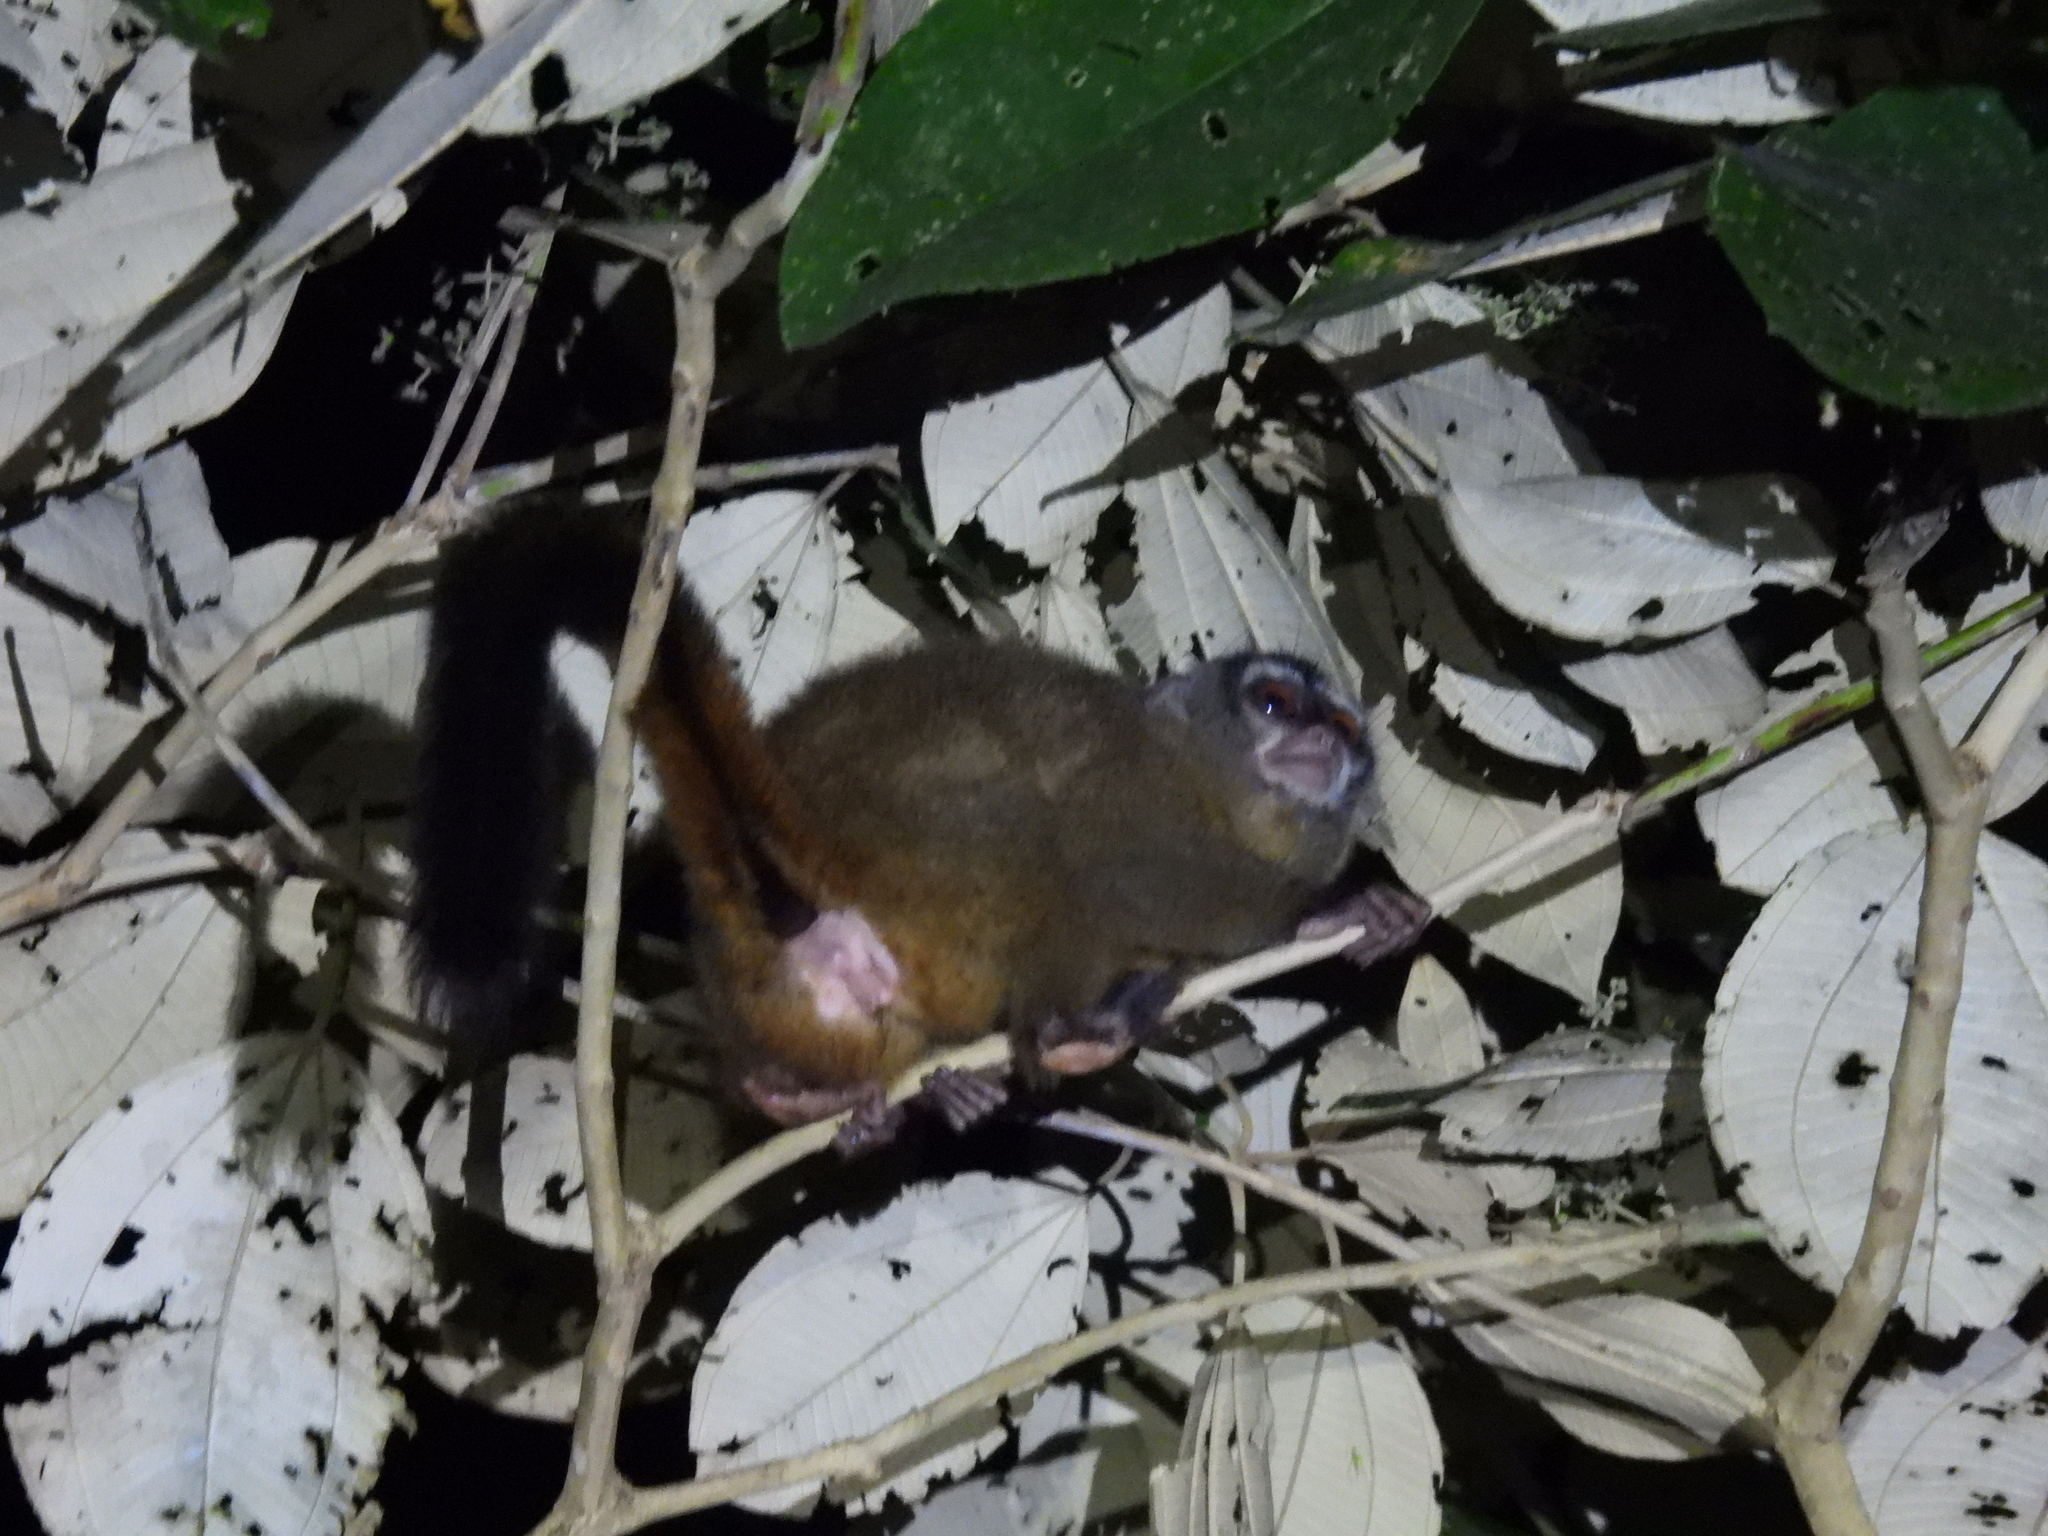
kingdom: Animalia
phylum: Chordata
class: Mammalia
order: Primates
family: Aotidae
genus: Aotus
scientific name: Aotus zonalis
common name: Panamanian night monkey
